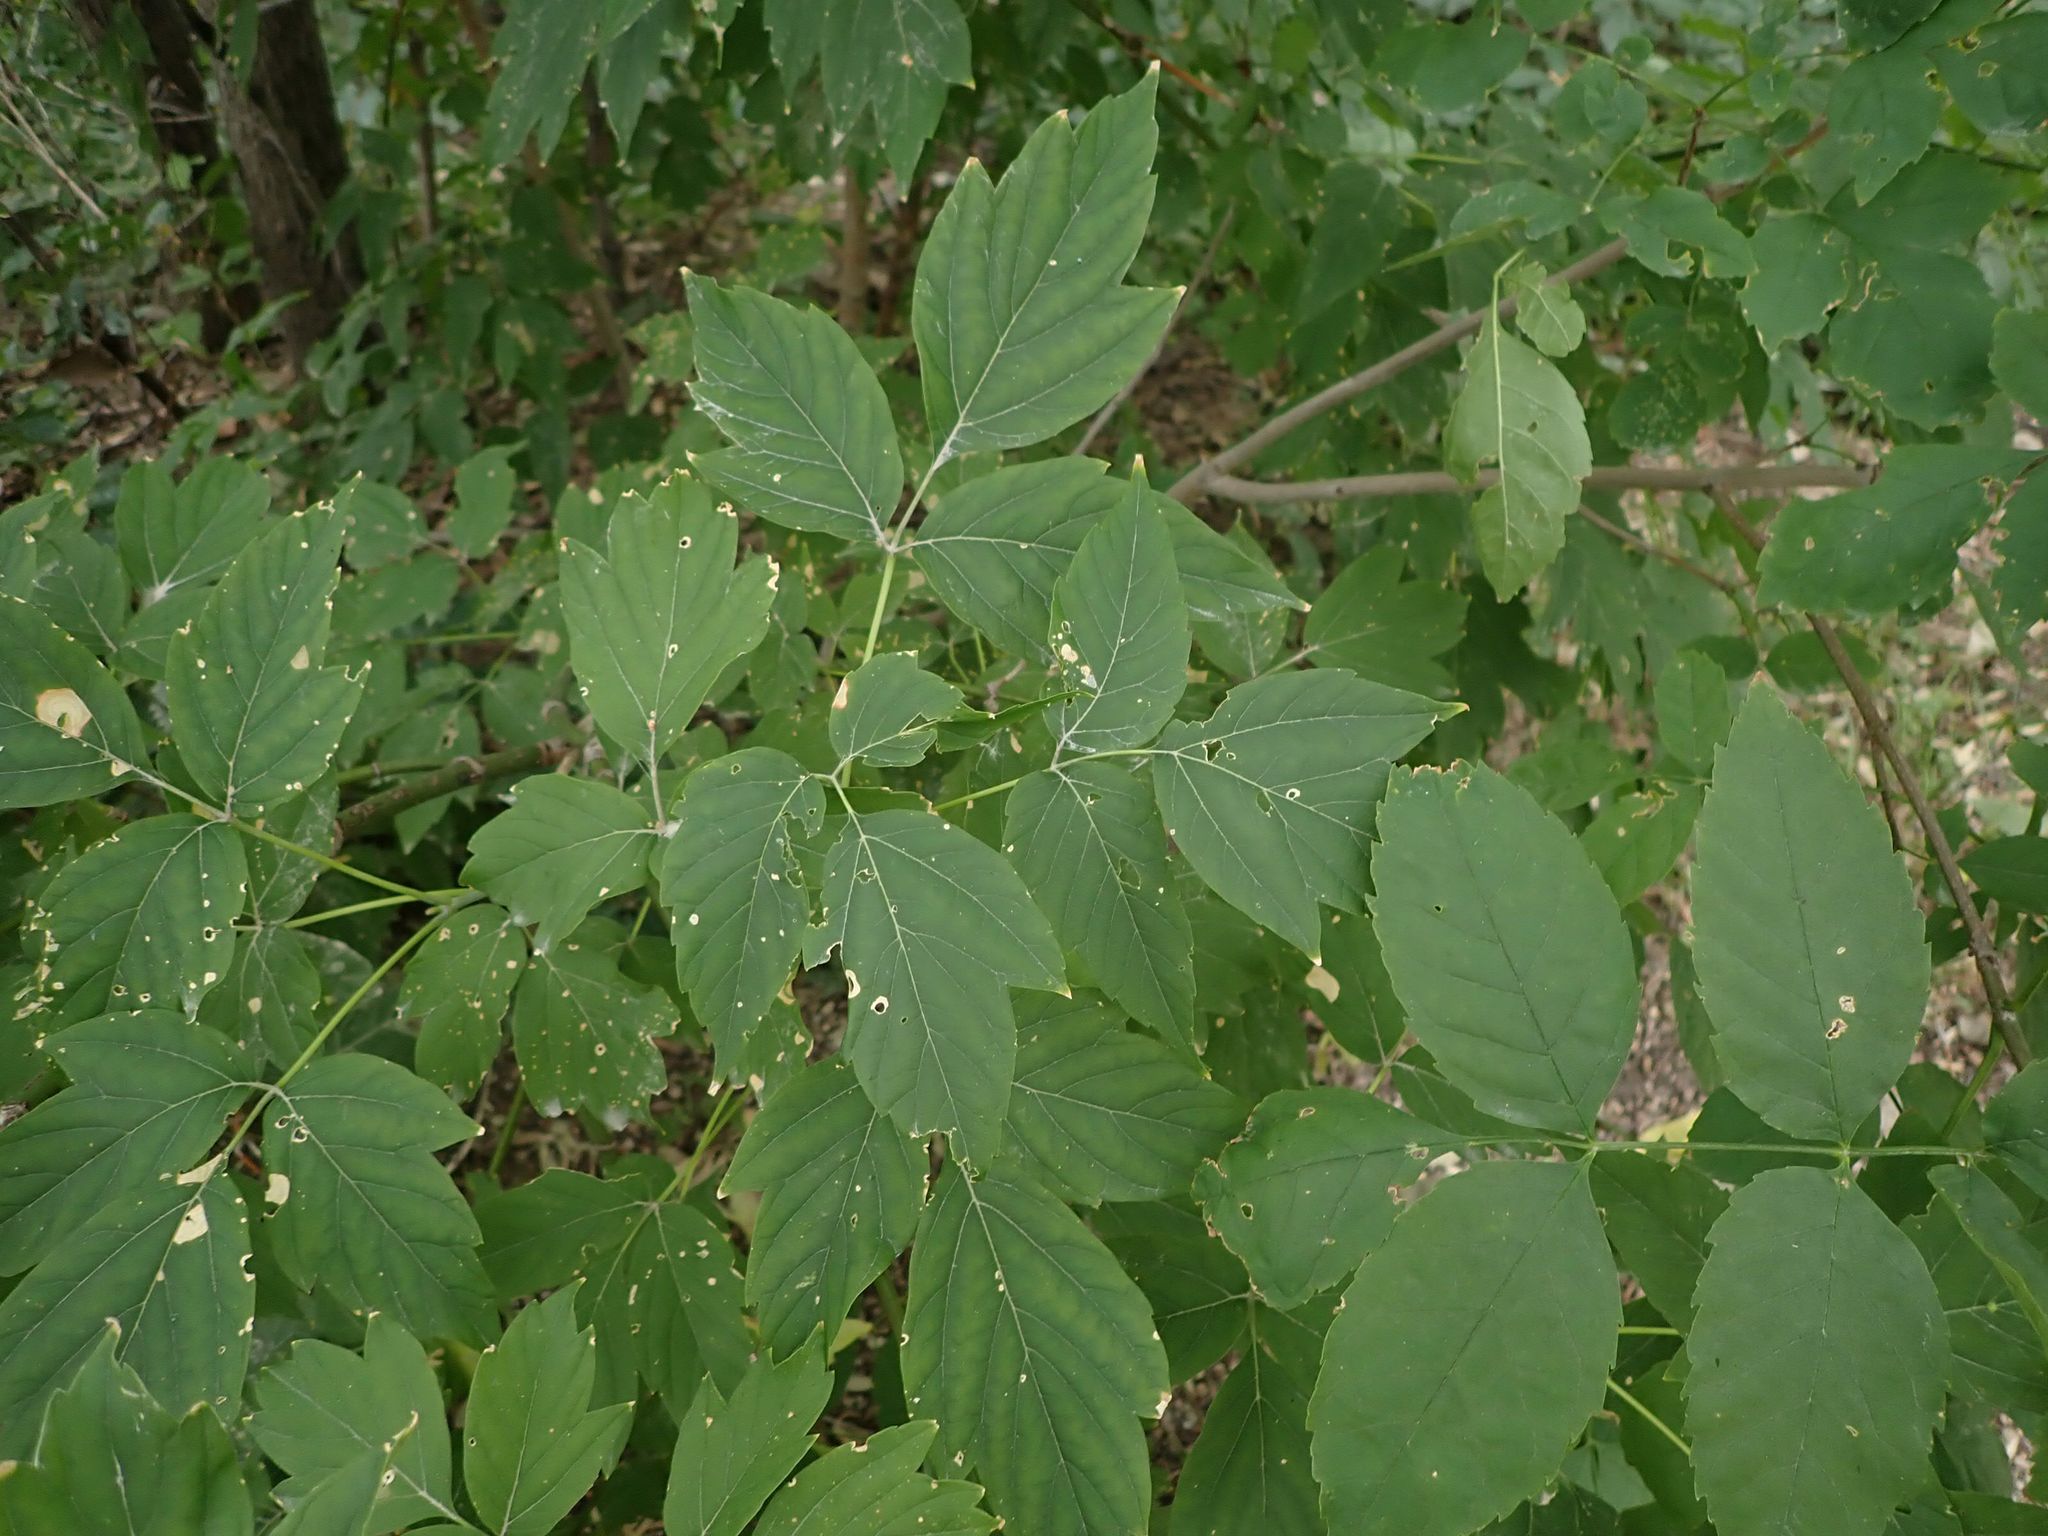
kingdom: Plantae
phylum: Tracheophyta
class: Magnoliopsida
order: Sapindales
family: Sapindaceae
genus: Acer
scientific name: Acer negundo
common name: Ashleaf maple
